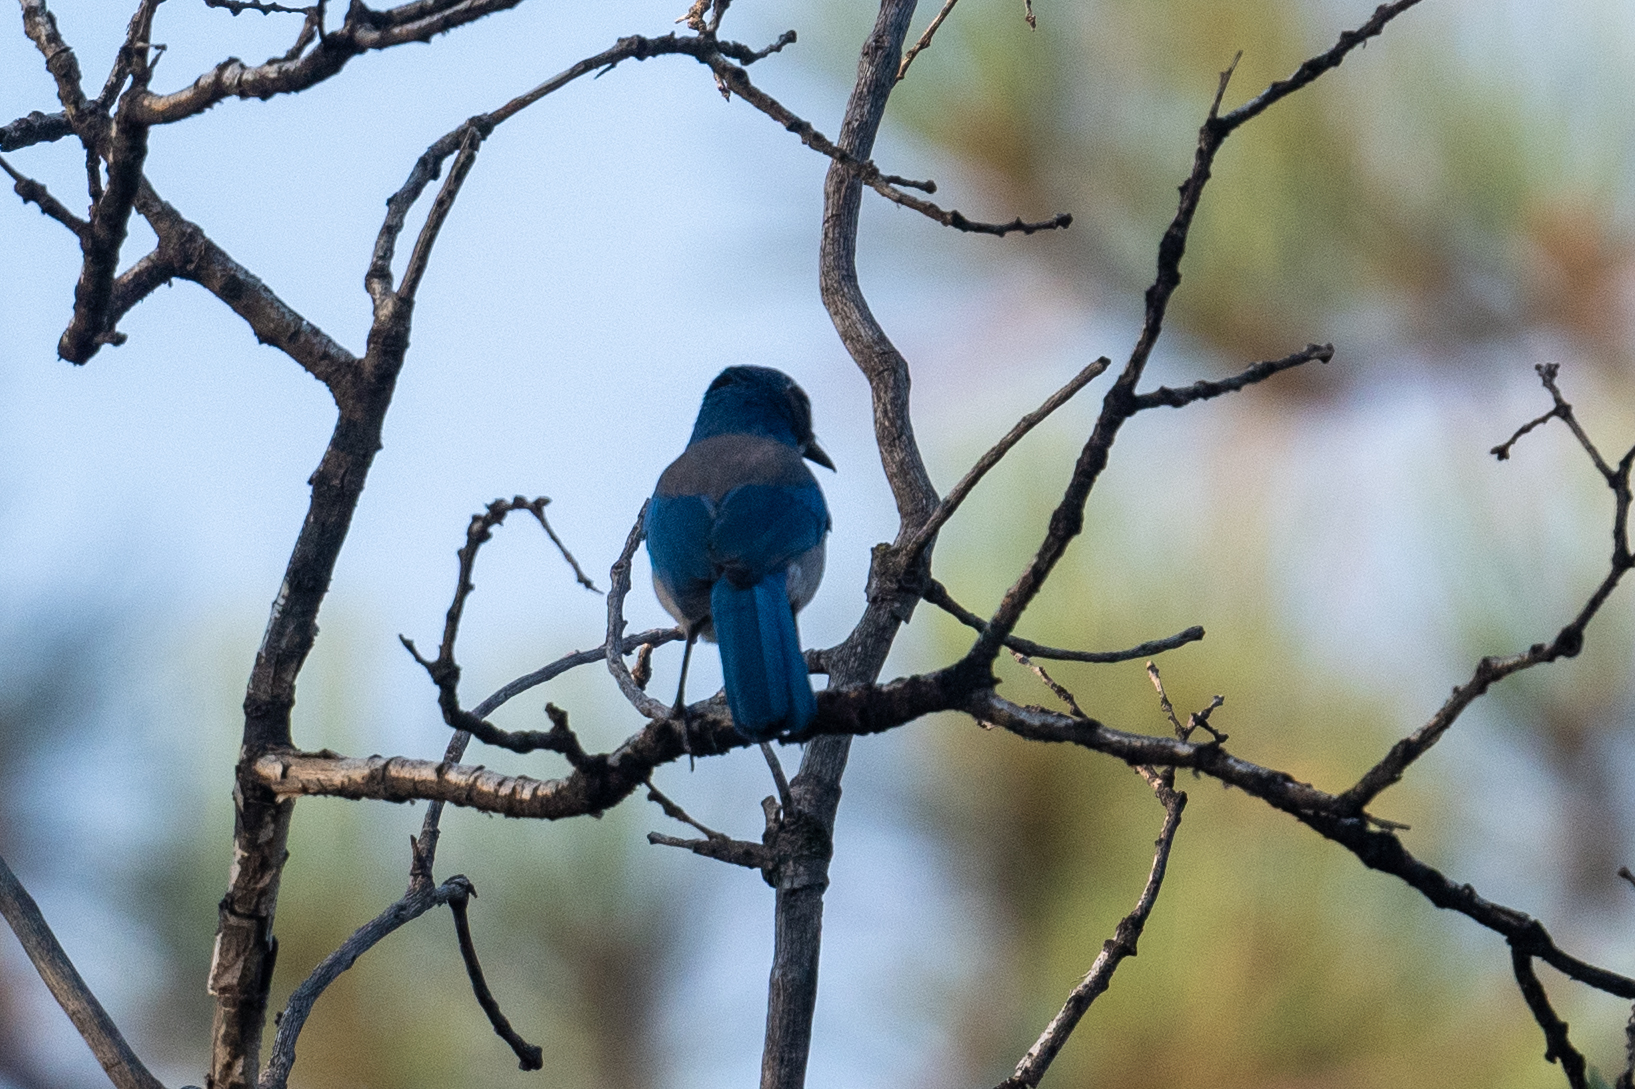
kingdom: Animalia
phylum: Chordata
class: Aves
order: Passeriformes
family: Corvidae
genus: Aphelocoma
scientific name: Aphelocoma californica
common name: California scrub-jay
